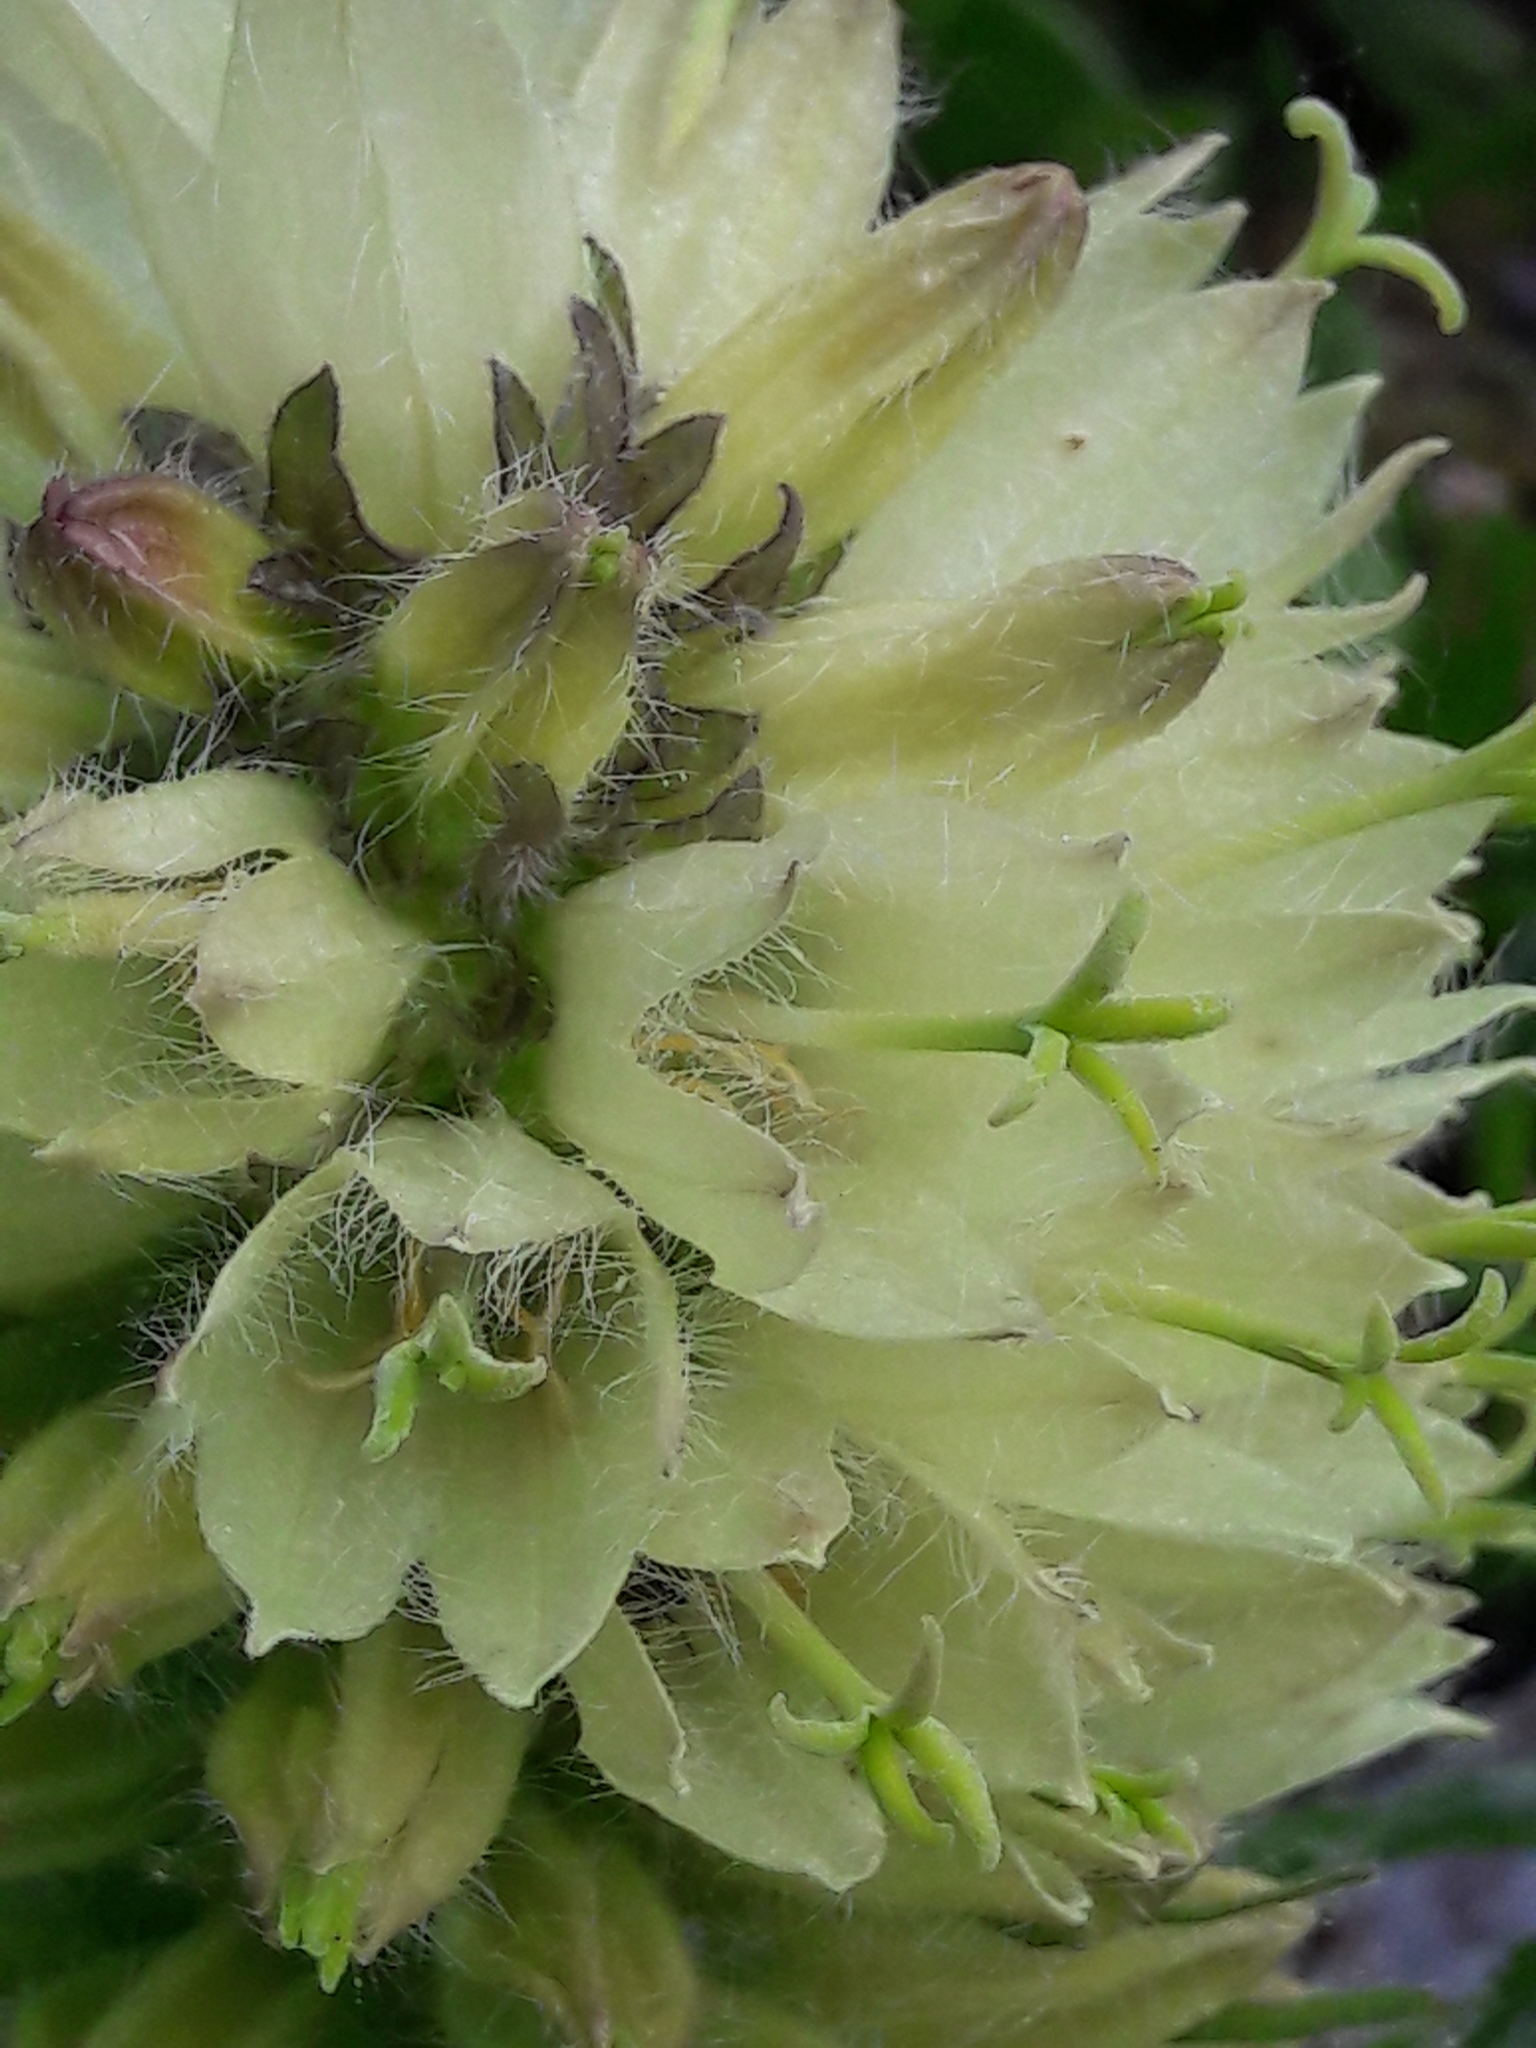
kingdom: Plantae
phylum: Tracheophyta
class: Magnoliopsida
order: Asterales
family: Campanulaceae
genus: Campanula
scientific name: Campanula thyrsoides
